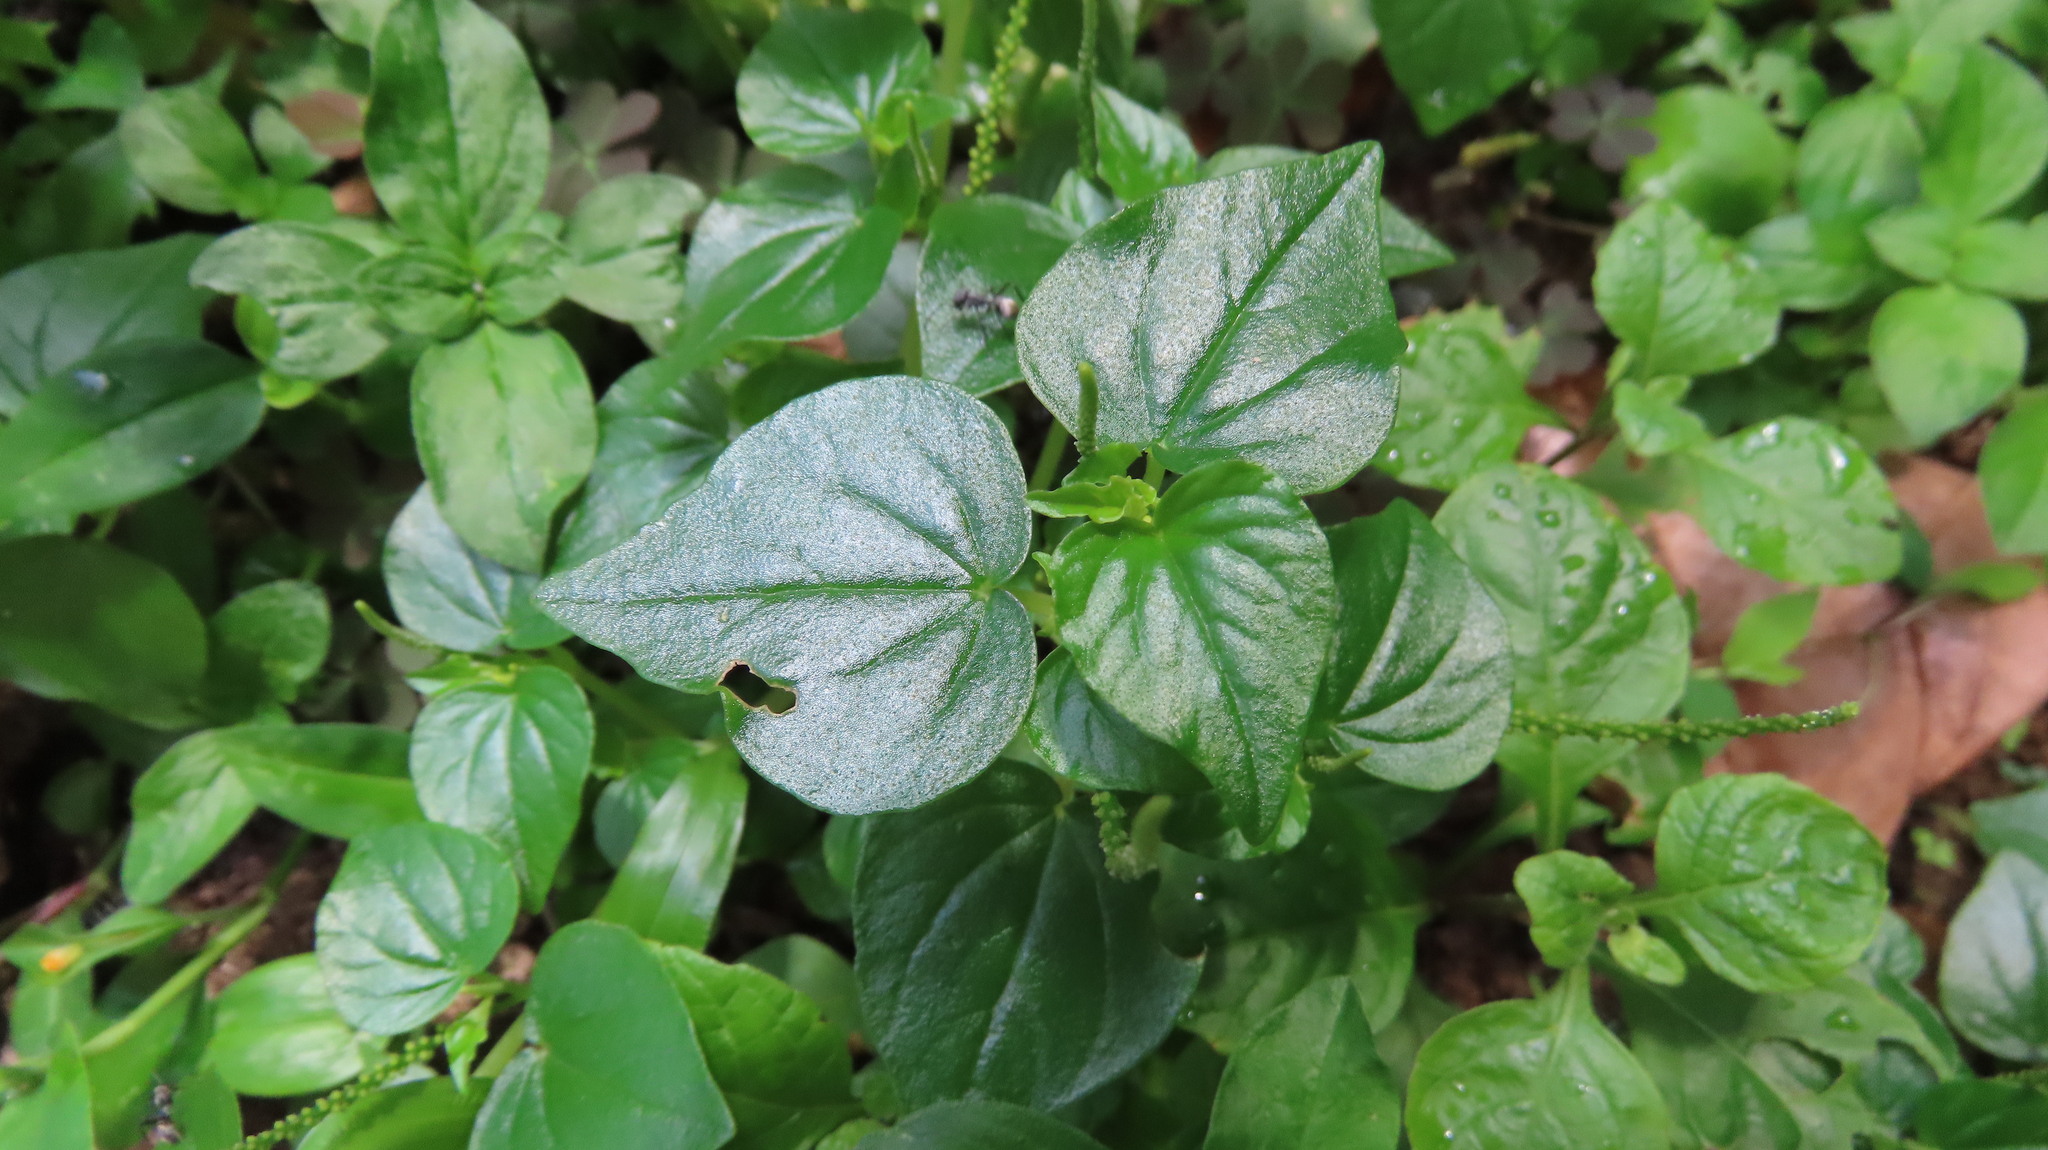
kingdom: Plantae
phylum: Tracheophyta
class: Magnoliopsida
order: Piperales
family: Piperaceae
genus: Peperomia
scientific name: Peperomia pellucida
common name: Man to man
